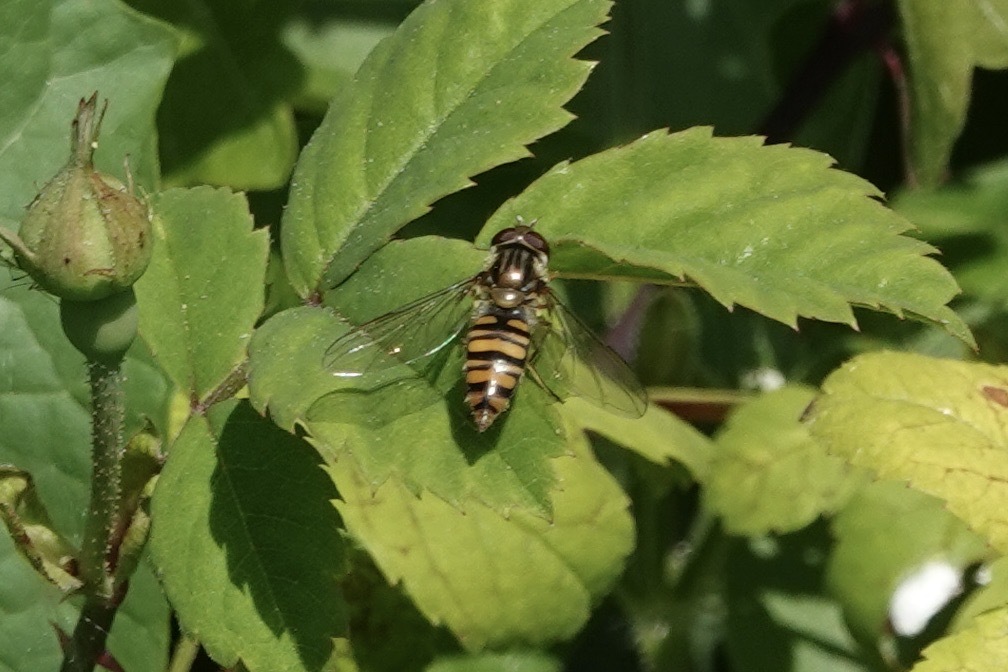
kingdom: Animalia
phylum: Arthropoda
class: Insecta
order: Diptera
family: Syrphidae
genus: Episyrphus
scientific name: Episyrphus balteatus
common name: Marmalade hoverfly
